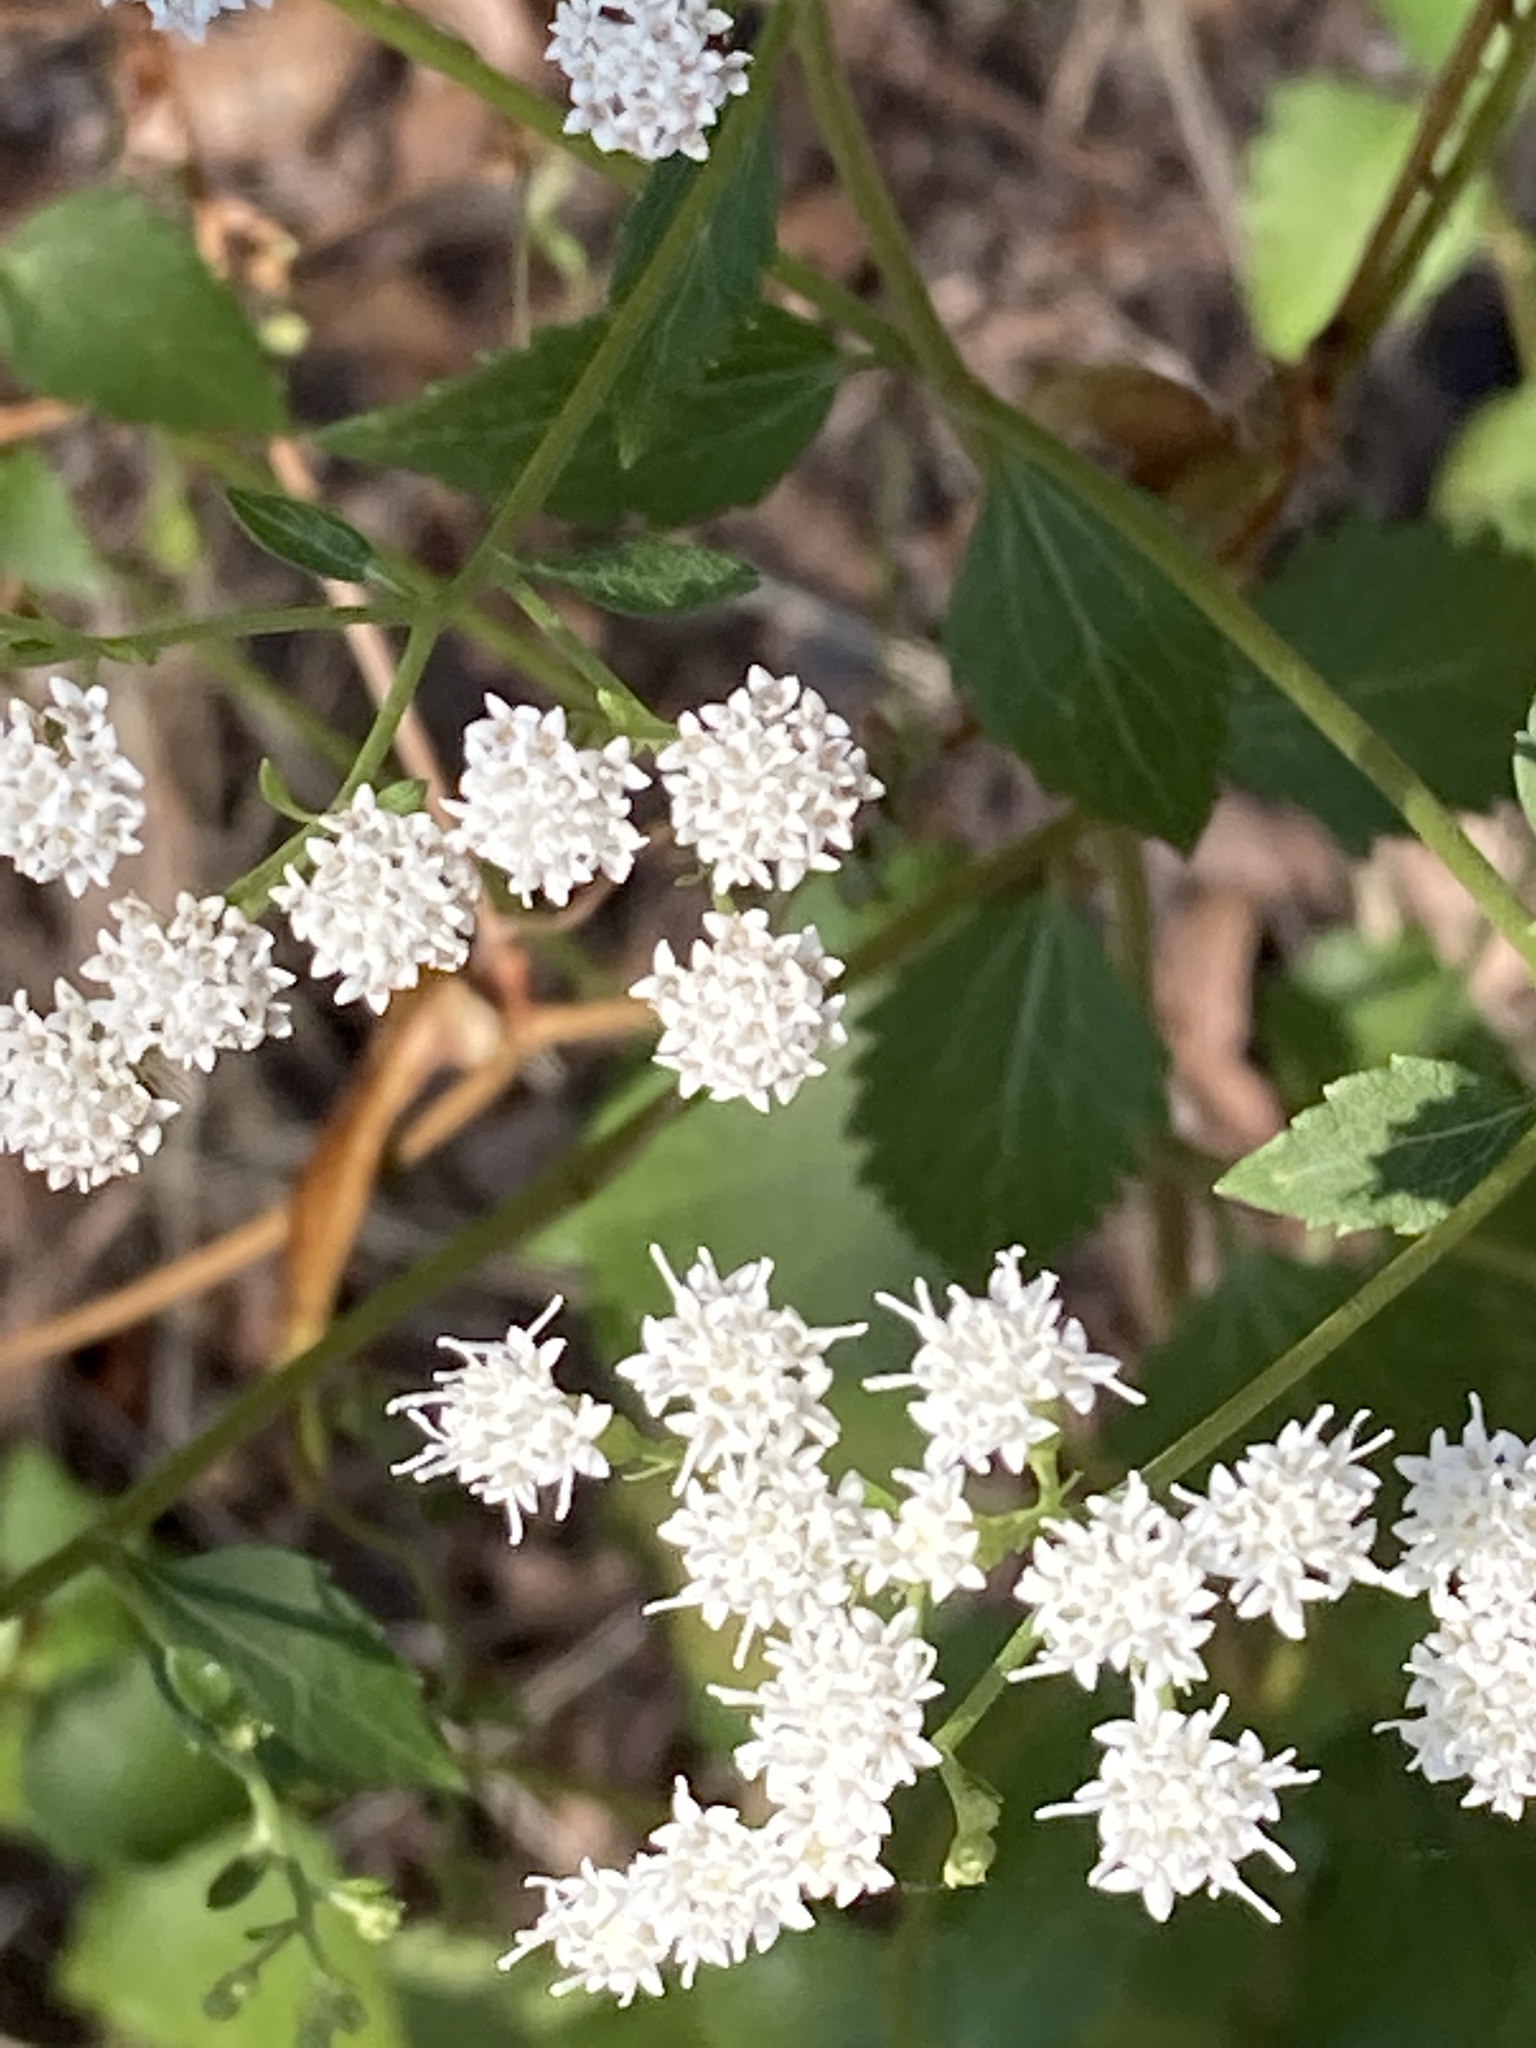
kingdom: Plantae
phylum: Tracheophyta
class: Magnoliopsida
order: Asterales
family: Asteraceae
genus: Ageratina
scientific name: Ageratina jucunda
